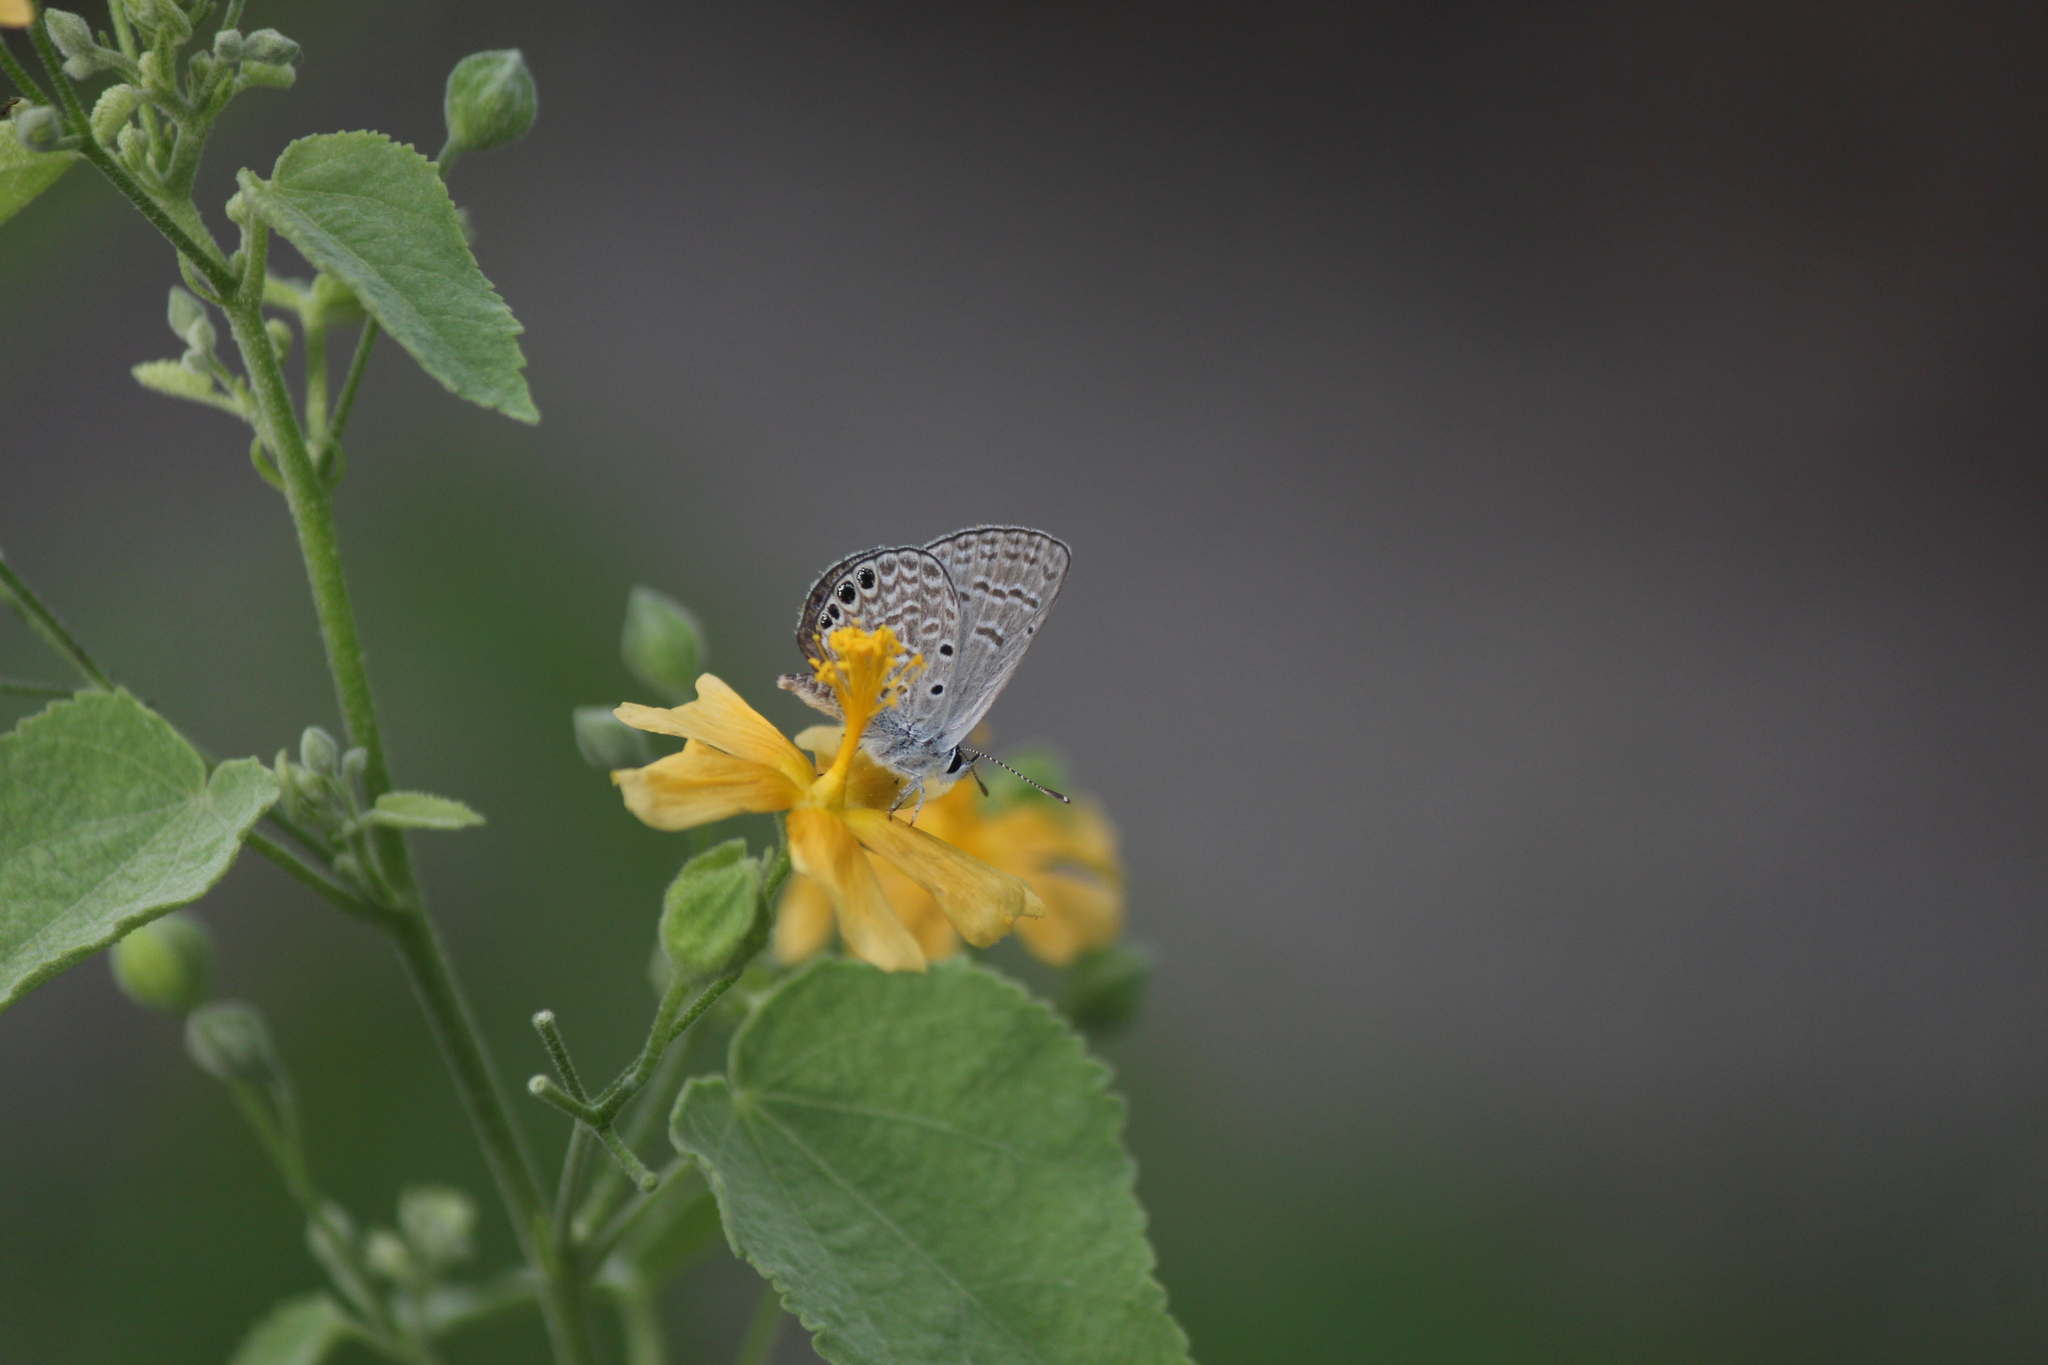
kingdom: Animalia
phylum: Arthropoda
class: Insecta
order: Lepidoptera
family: Lycaenidae
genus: Hemiargus
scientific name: Hemiargus ramon
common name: Ramon blue
